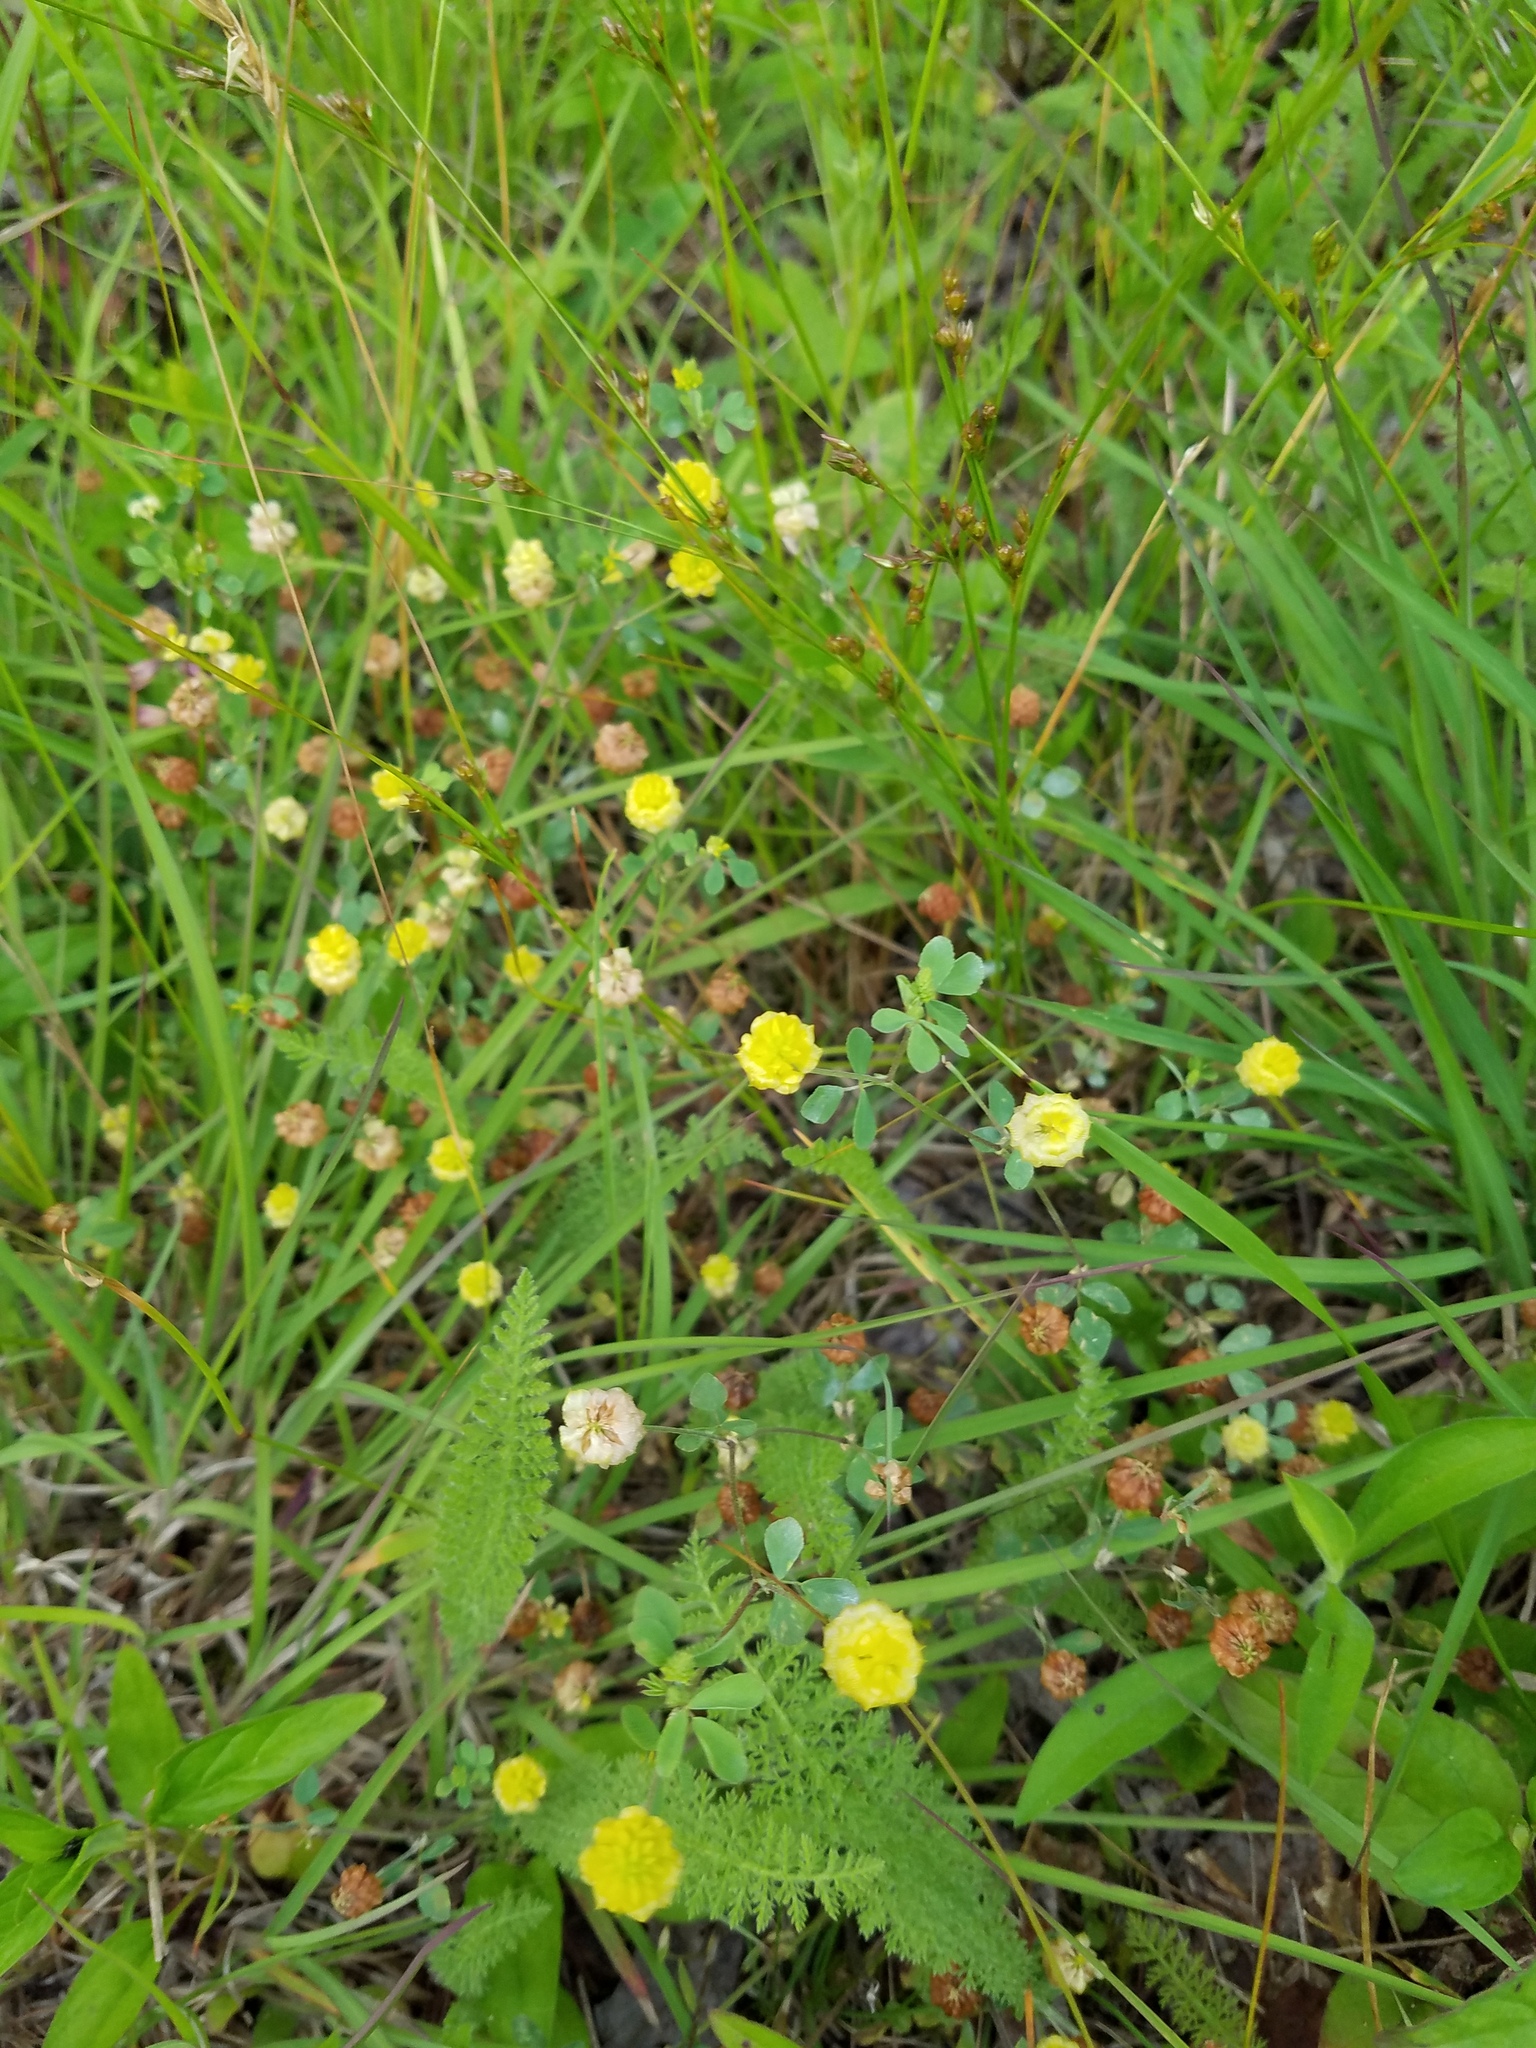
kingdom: Plantae
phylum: Tracheophyta
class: Magnoliopsida
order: Fabales
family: Fabaceae
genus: Trifolium
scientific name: Trifolium campestre
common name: Field clover
